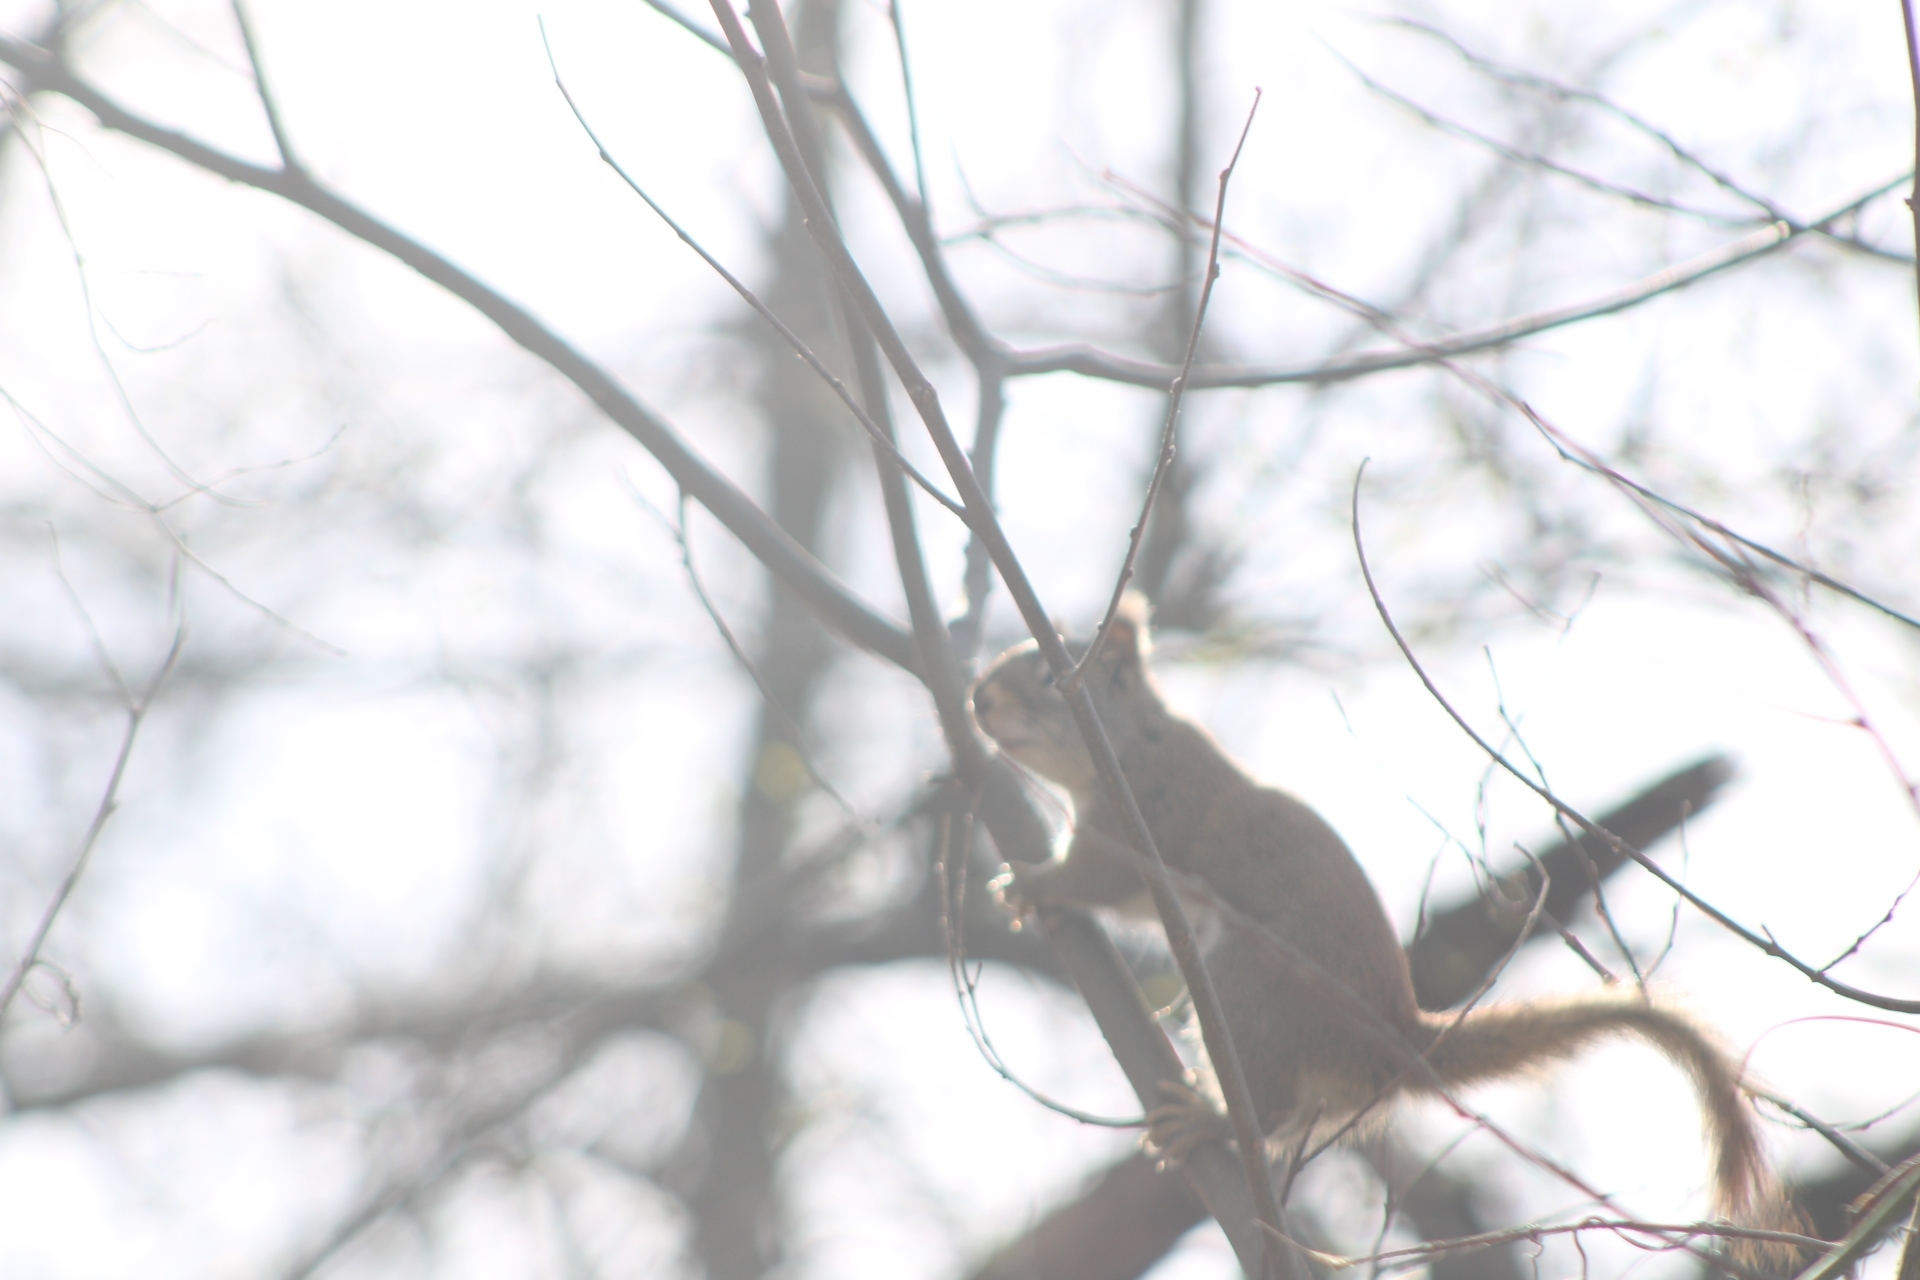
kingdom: Animalia
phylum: Chordata
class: Mammalia
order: Rodentia
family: Sciuridae
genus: Tamiasciurus
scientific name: Tamiasciurus hudsonicus
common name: Red squirrel
